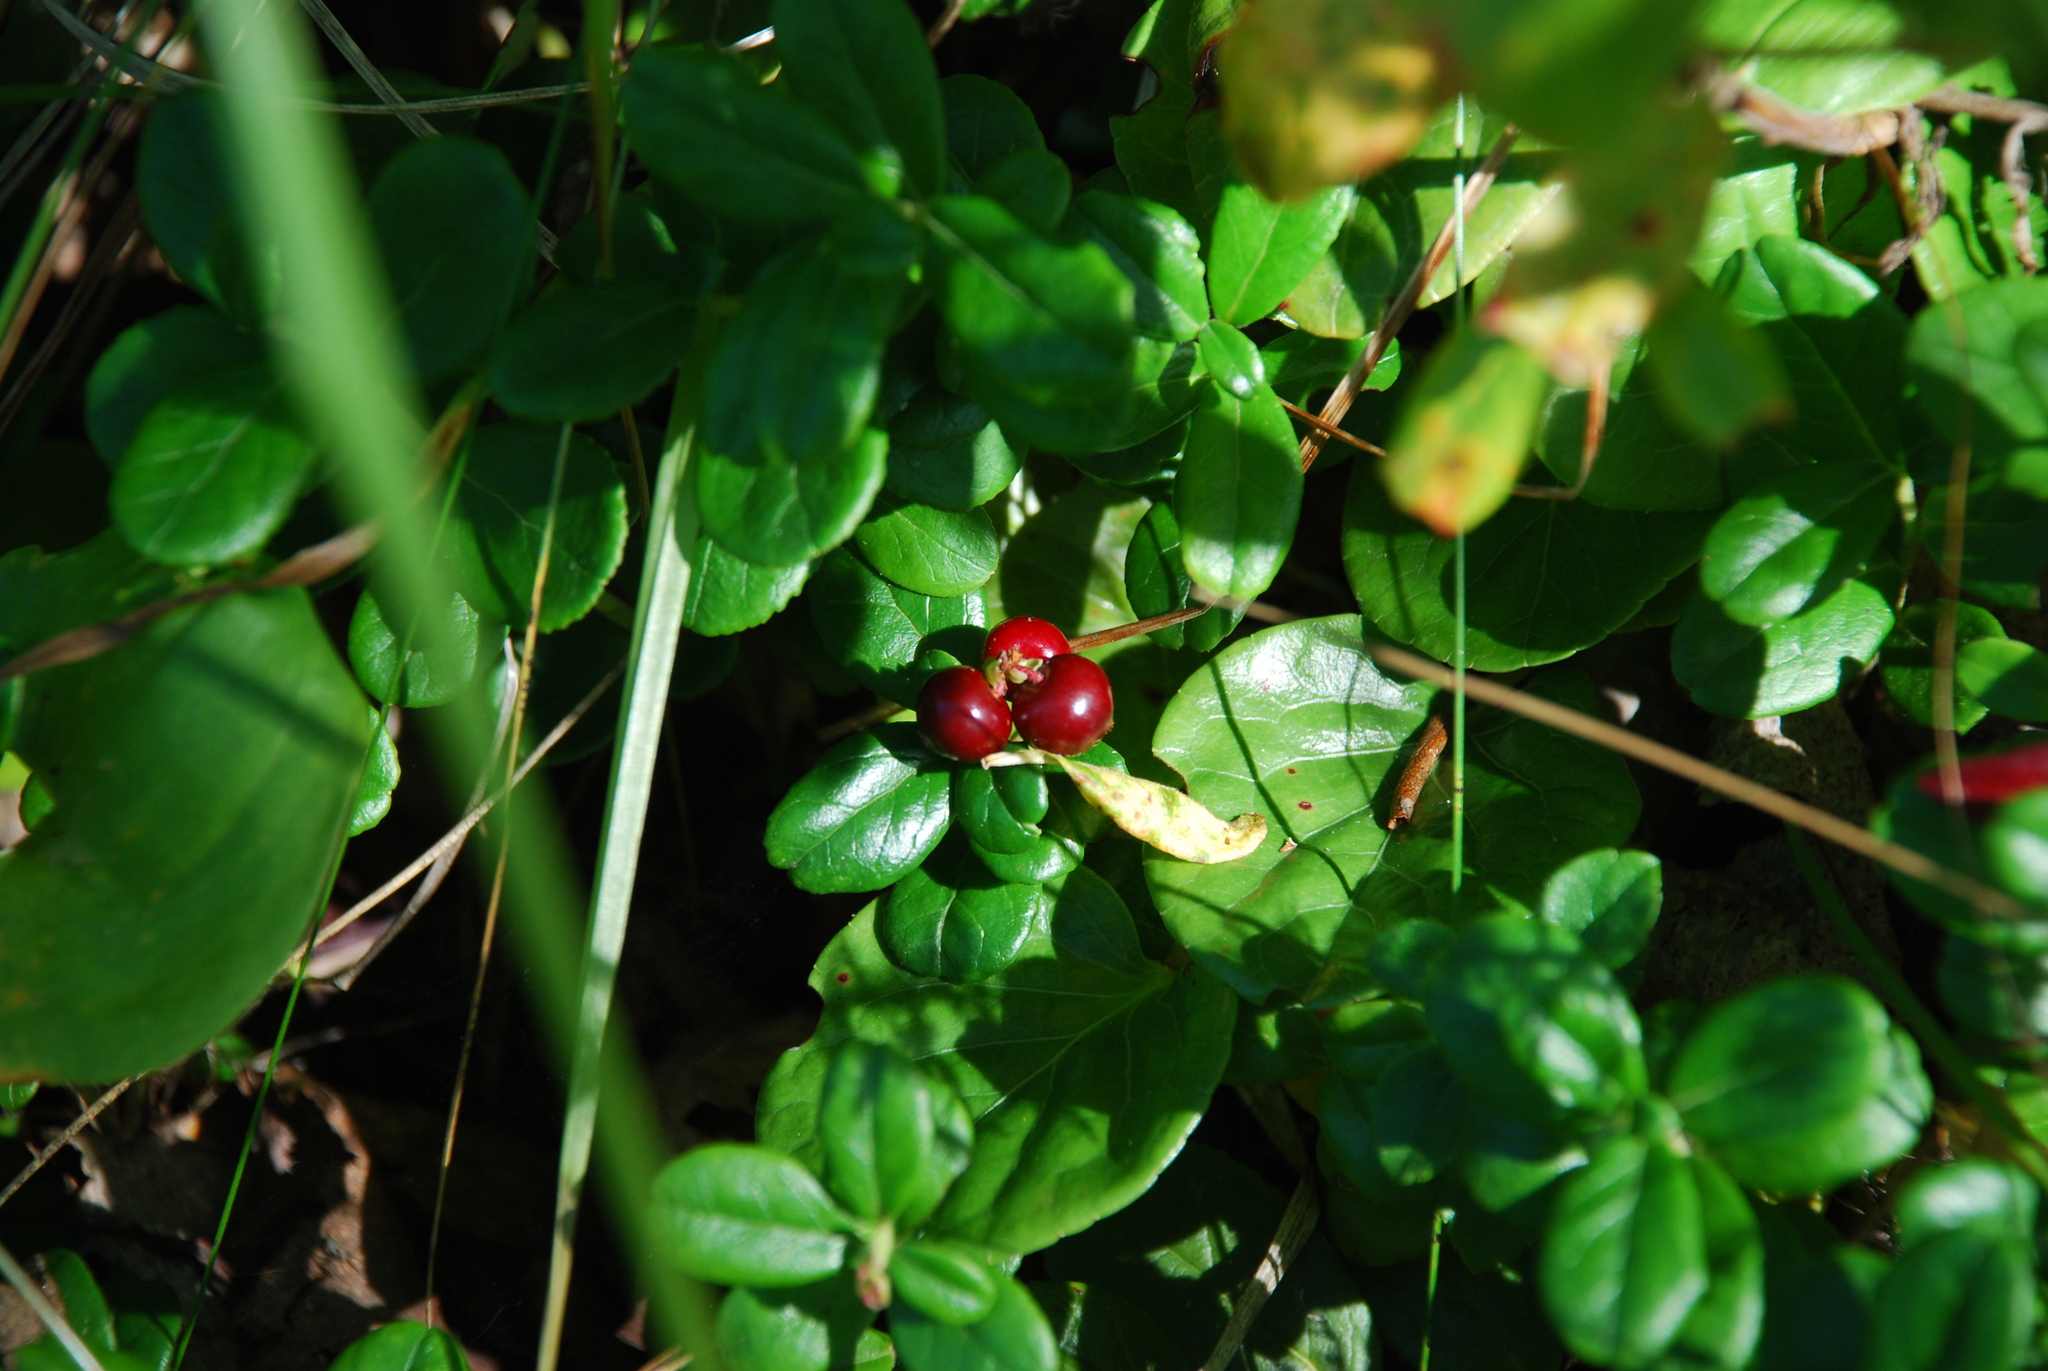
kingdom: Plantae
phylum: Tracheophyta
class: Magnoliopsida
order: Ericales
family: Ericaceae
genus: Vaccinium
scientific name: Vaccinium vitis-idaea
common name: Cowberry
